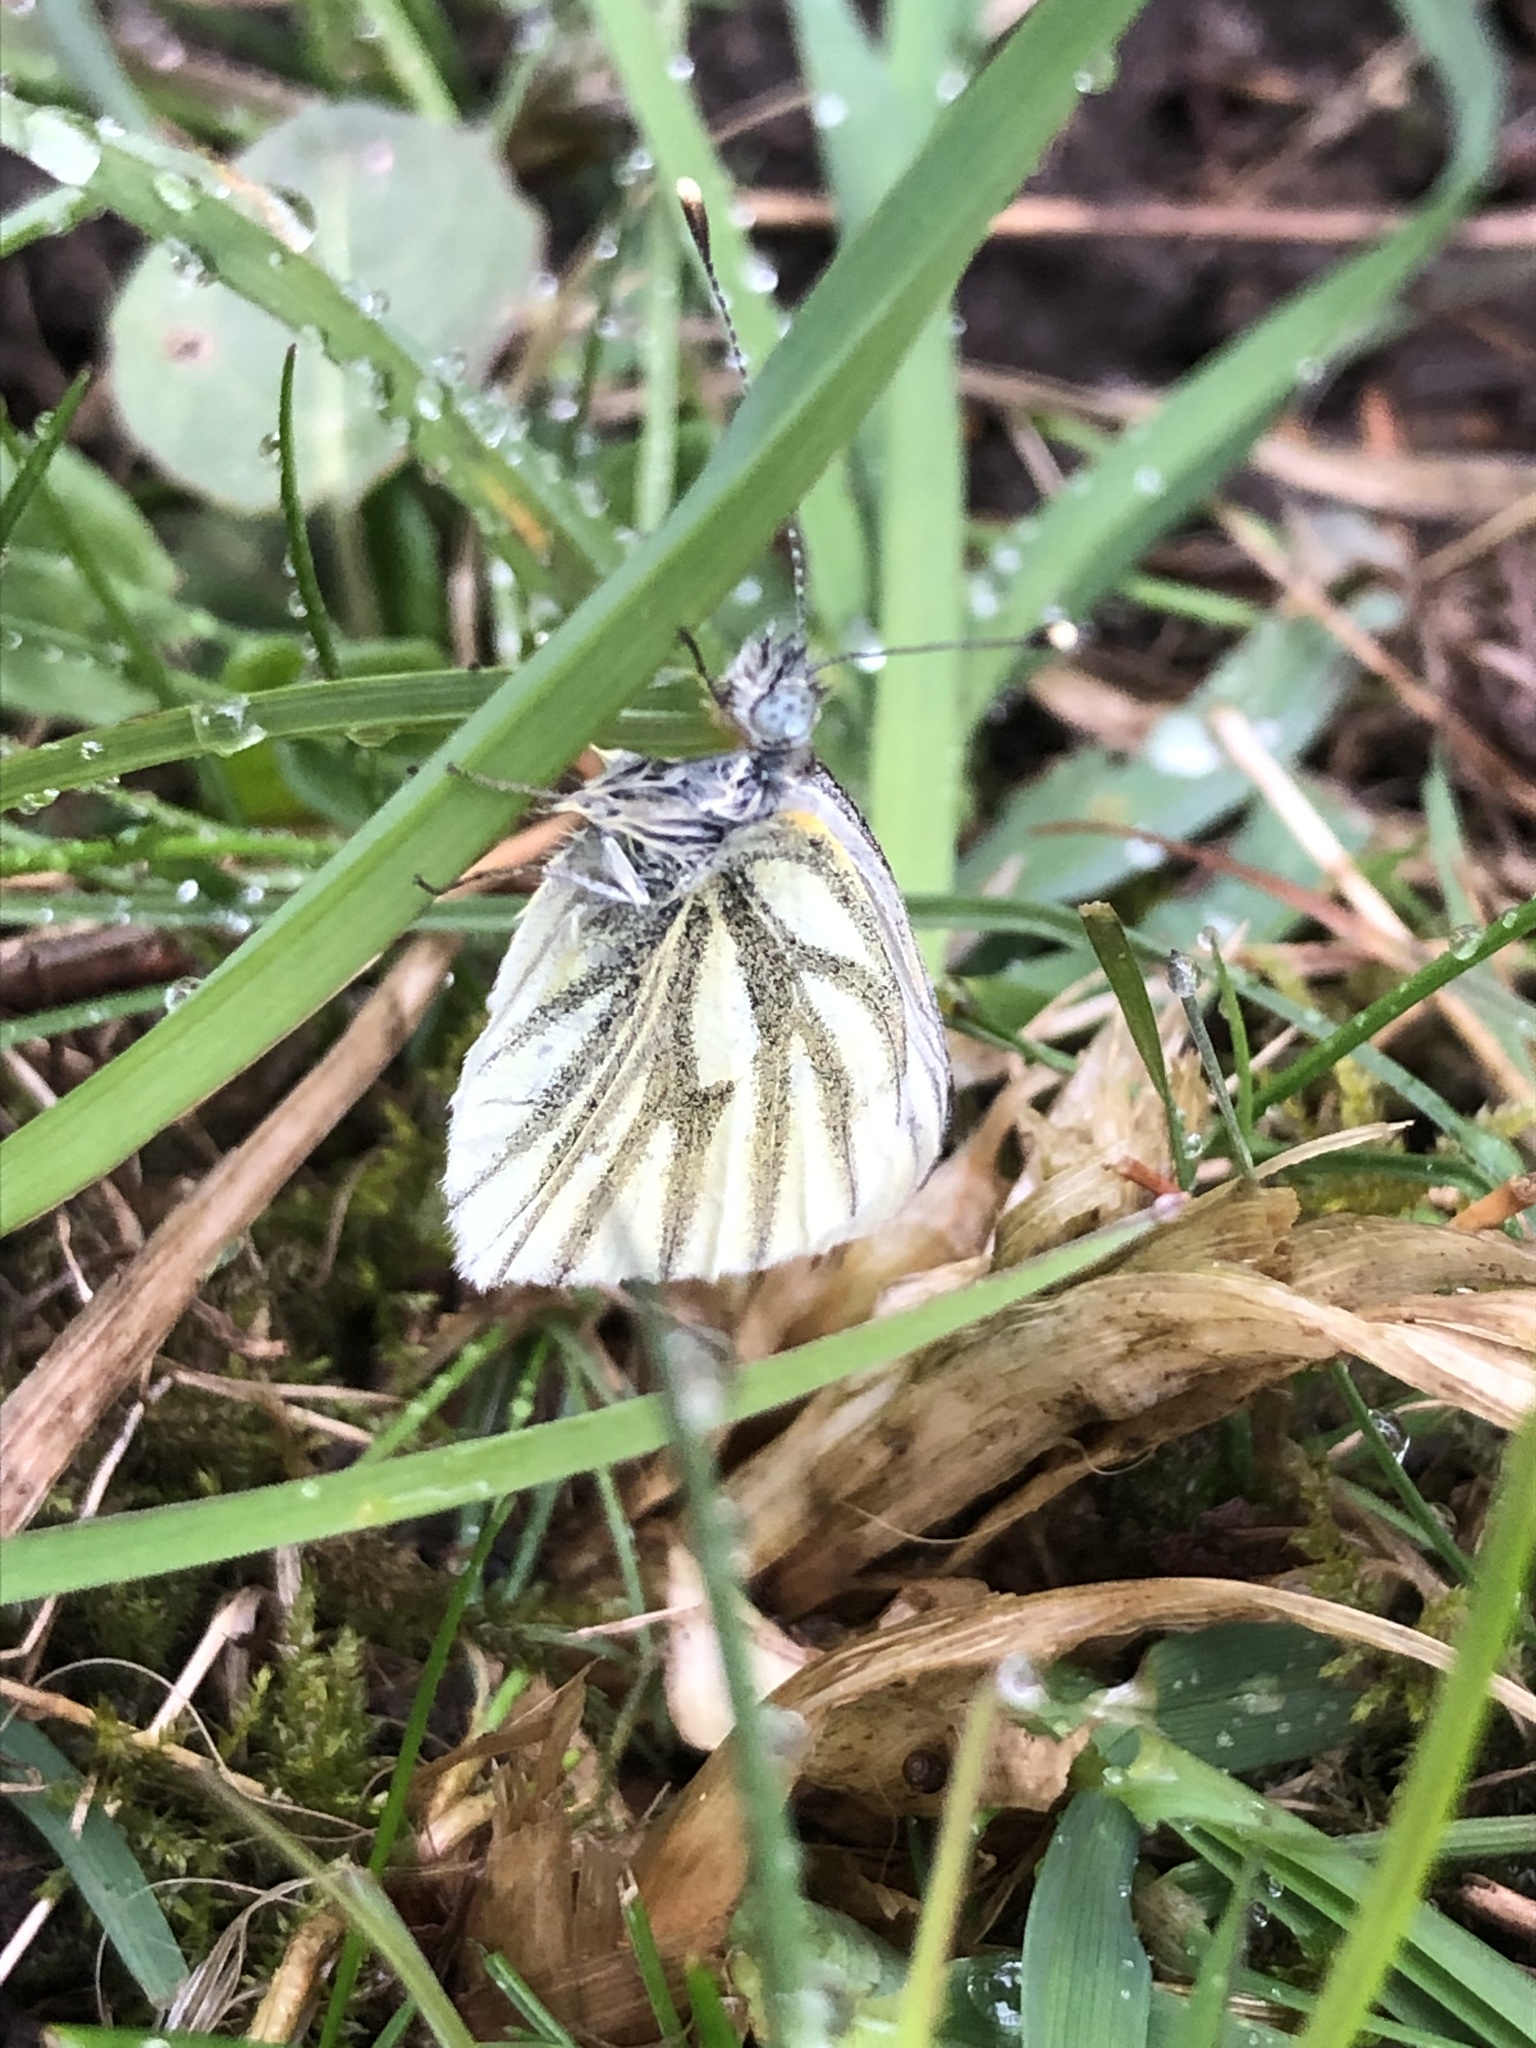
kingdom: Animalia
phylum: Arthropoda
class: Insecta
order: Lepidoptera
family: Pieridae
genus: Pieris
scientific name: Pieris napi
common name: Green-veined white
